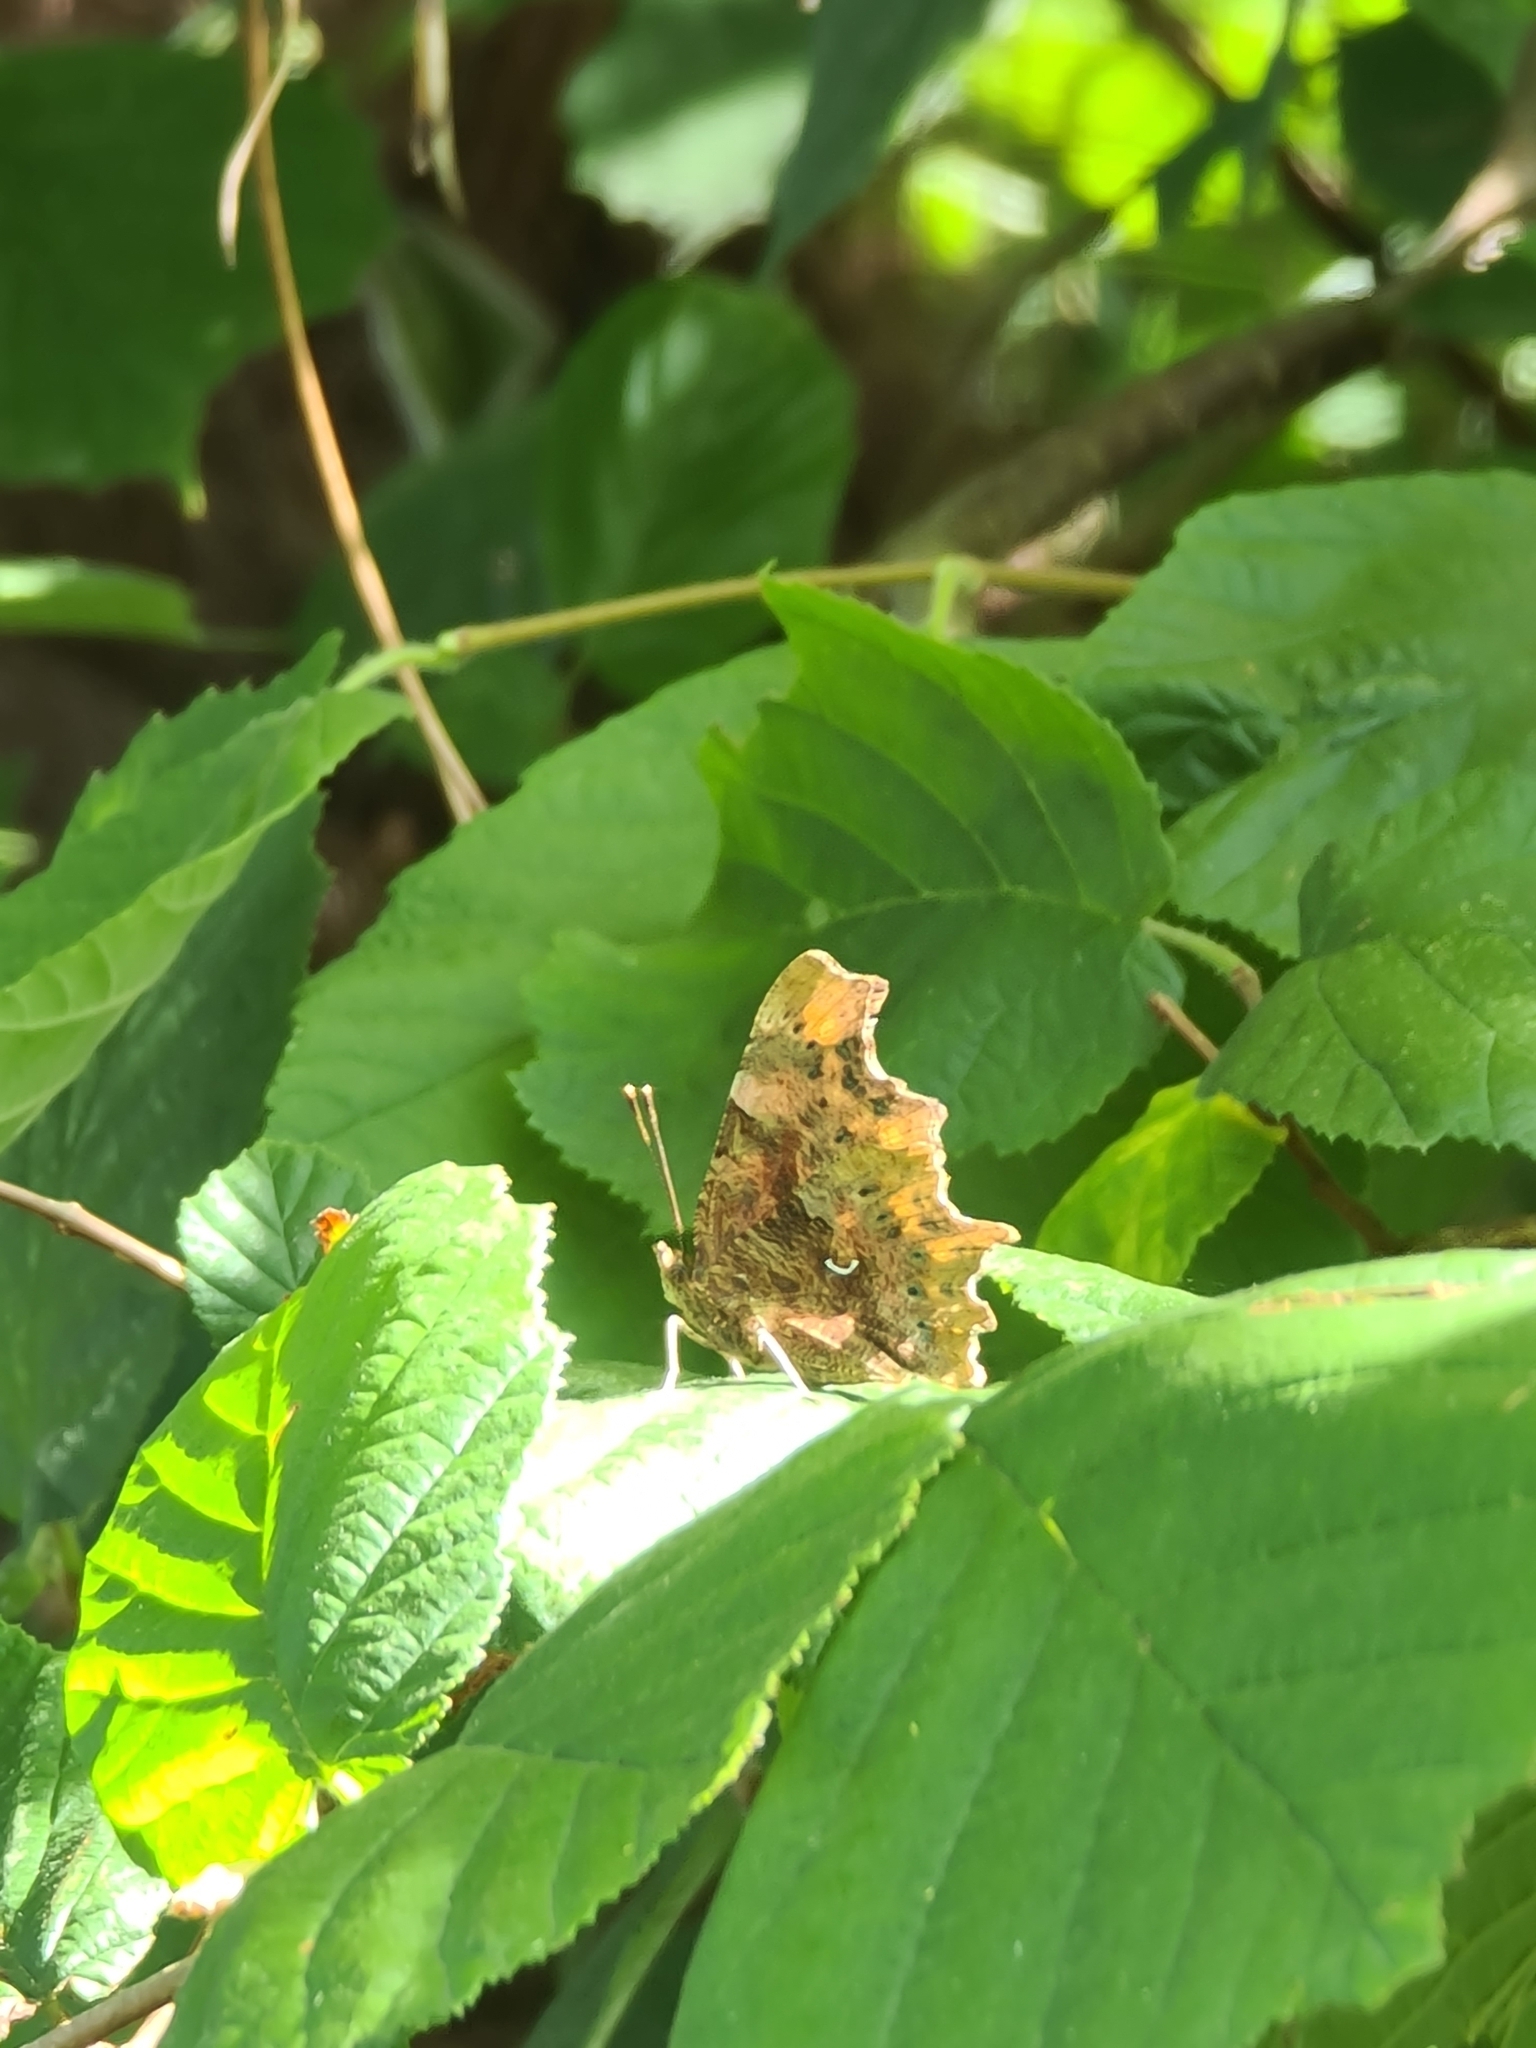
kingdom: Animalia
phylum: Arthropoda
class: Insecta
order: Lepidoptera
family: Nymphalidae
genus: Polygonia
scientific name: Polygonia c-album
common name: Comma
